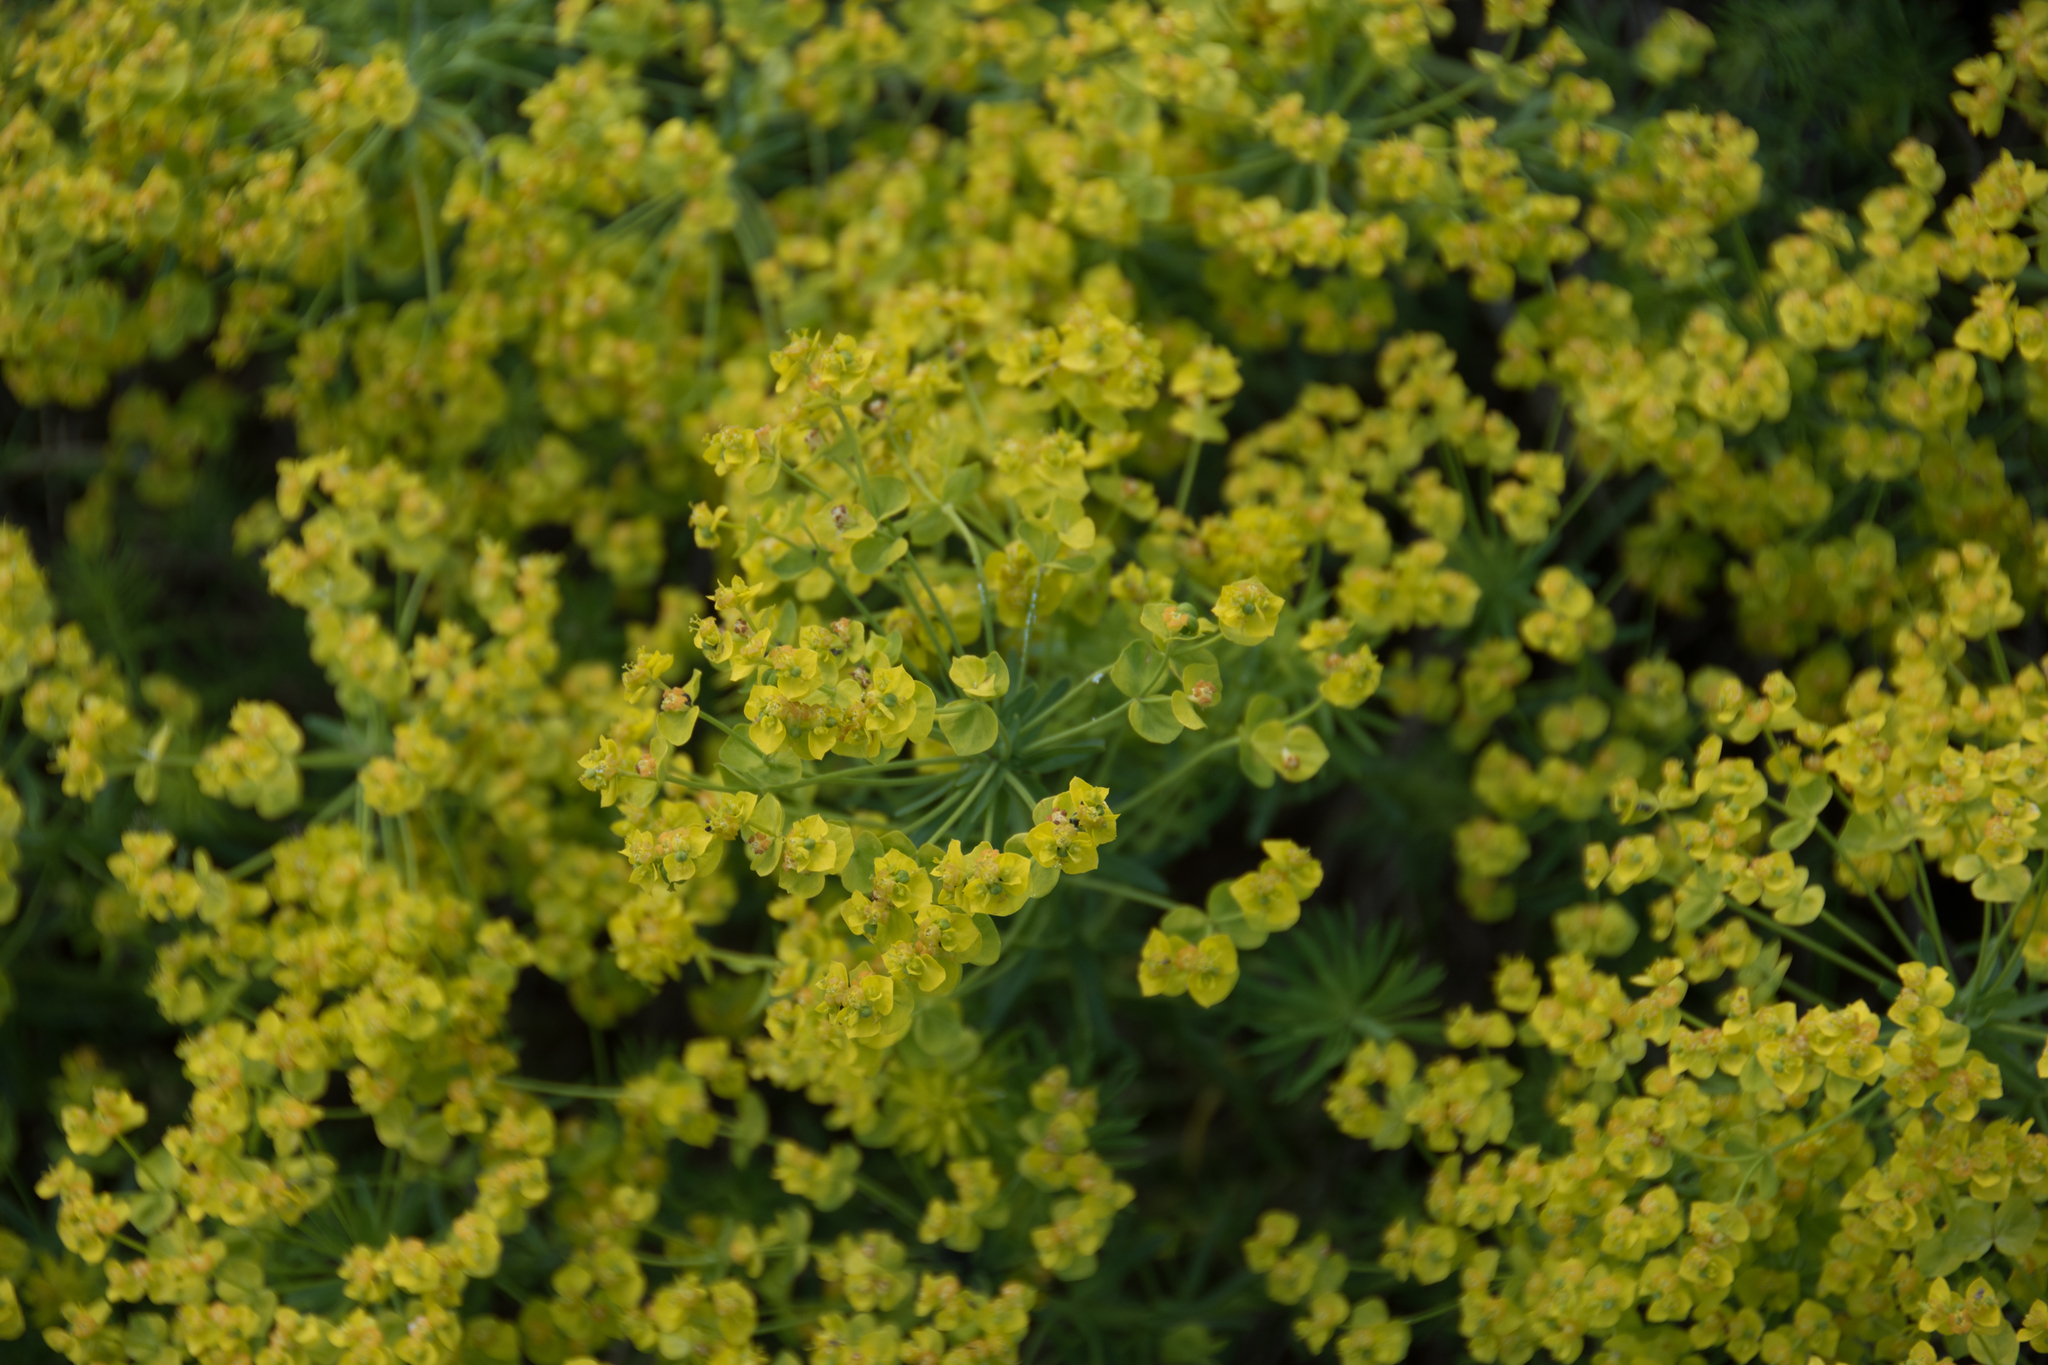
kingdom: Plantae
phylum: Tracheophyta
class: Magnoliopsida
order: Malpighiales
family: Euphorbiaceae
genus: Euphorbia
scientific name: Euphorbia cyparissias
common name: Cypress spurge
